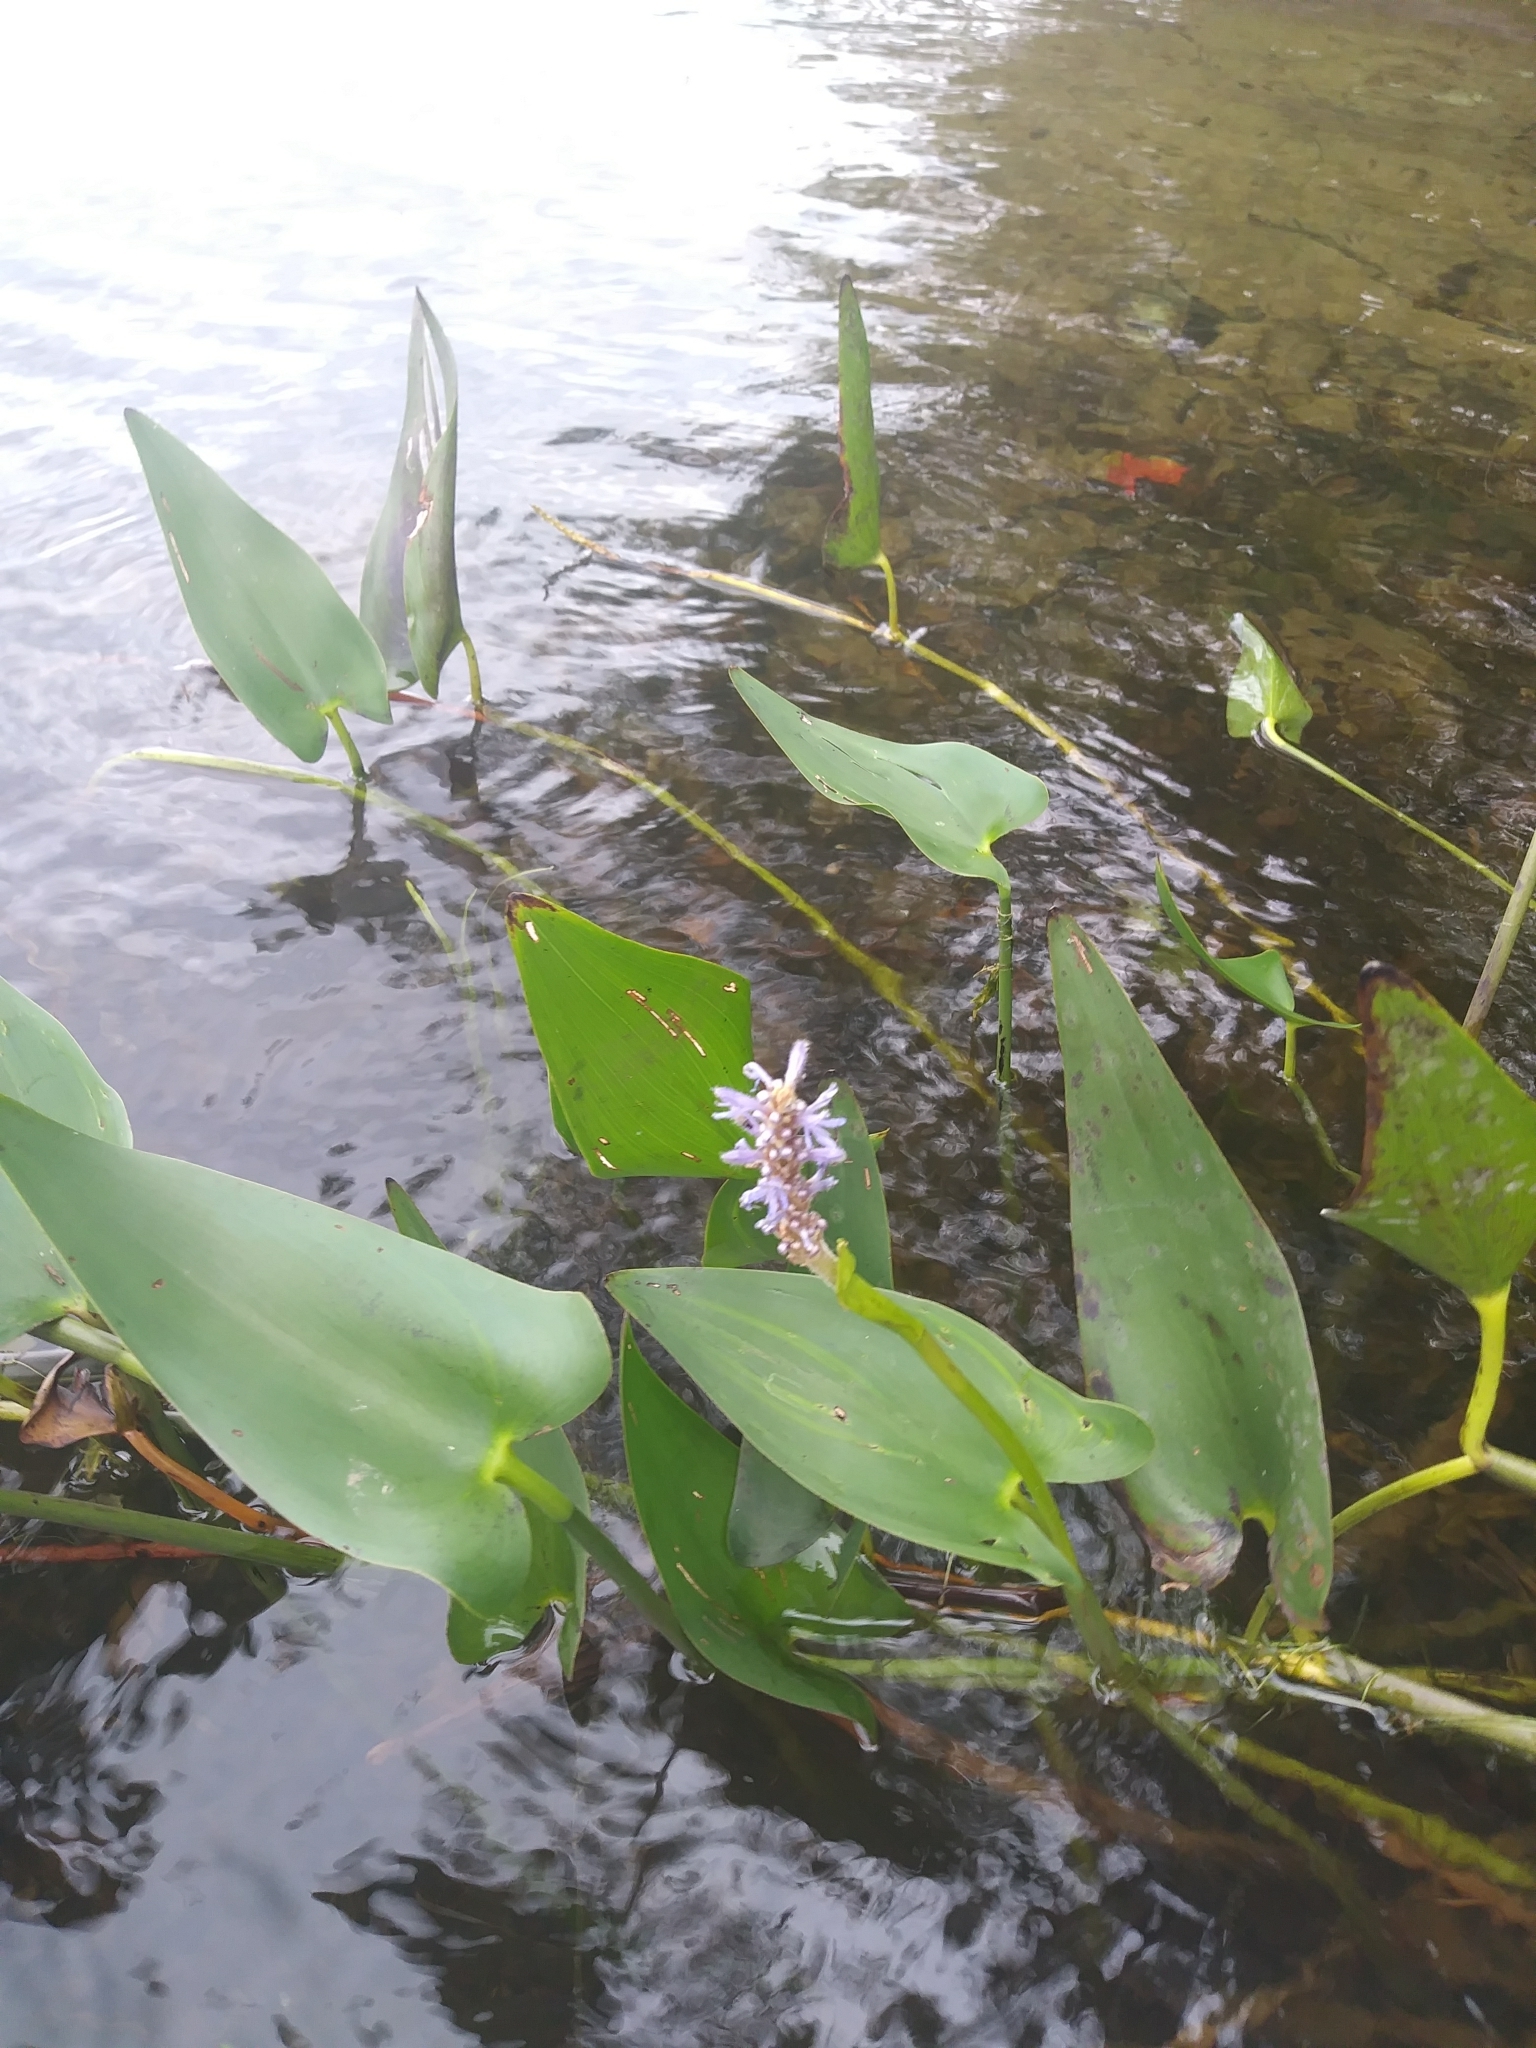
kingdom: Plantae
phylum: Tracheophyta
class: Liliopsida
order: Commelinales
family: Pontederiaceae
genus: Pontederia
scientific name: Pontederia cordata
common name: Pickerelweed
